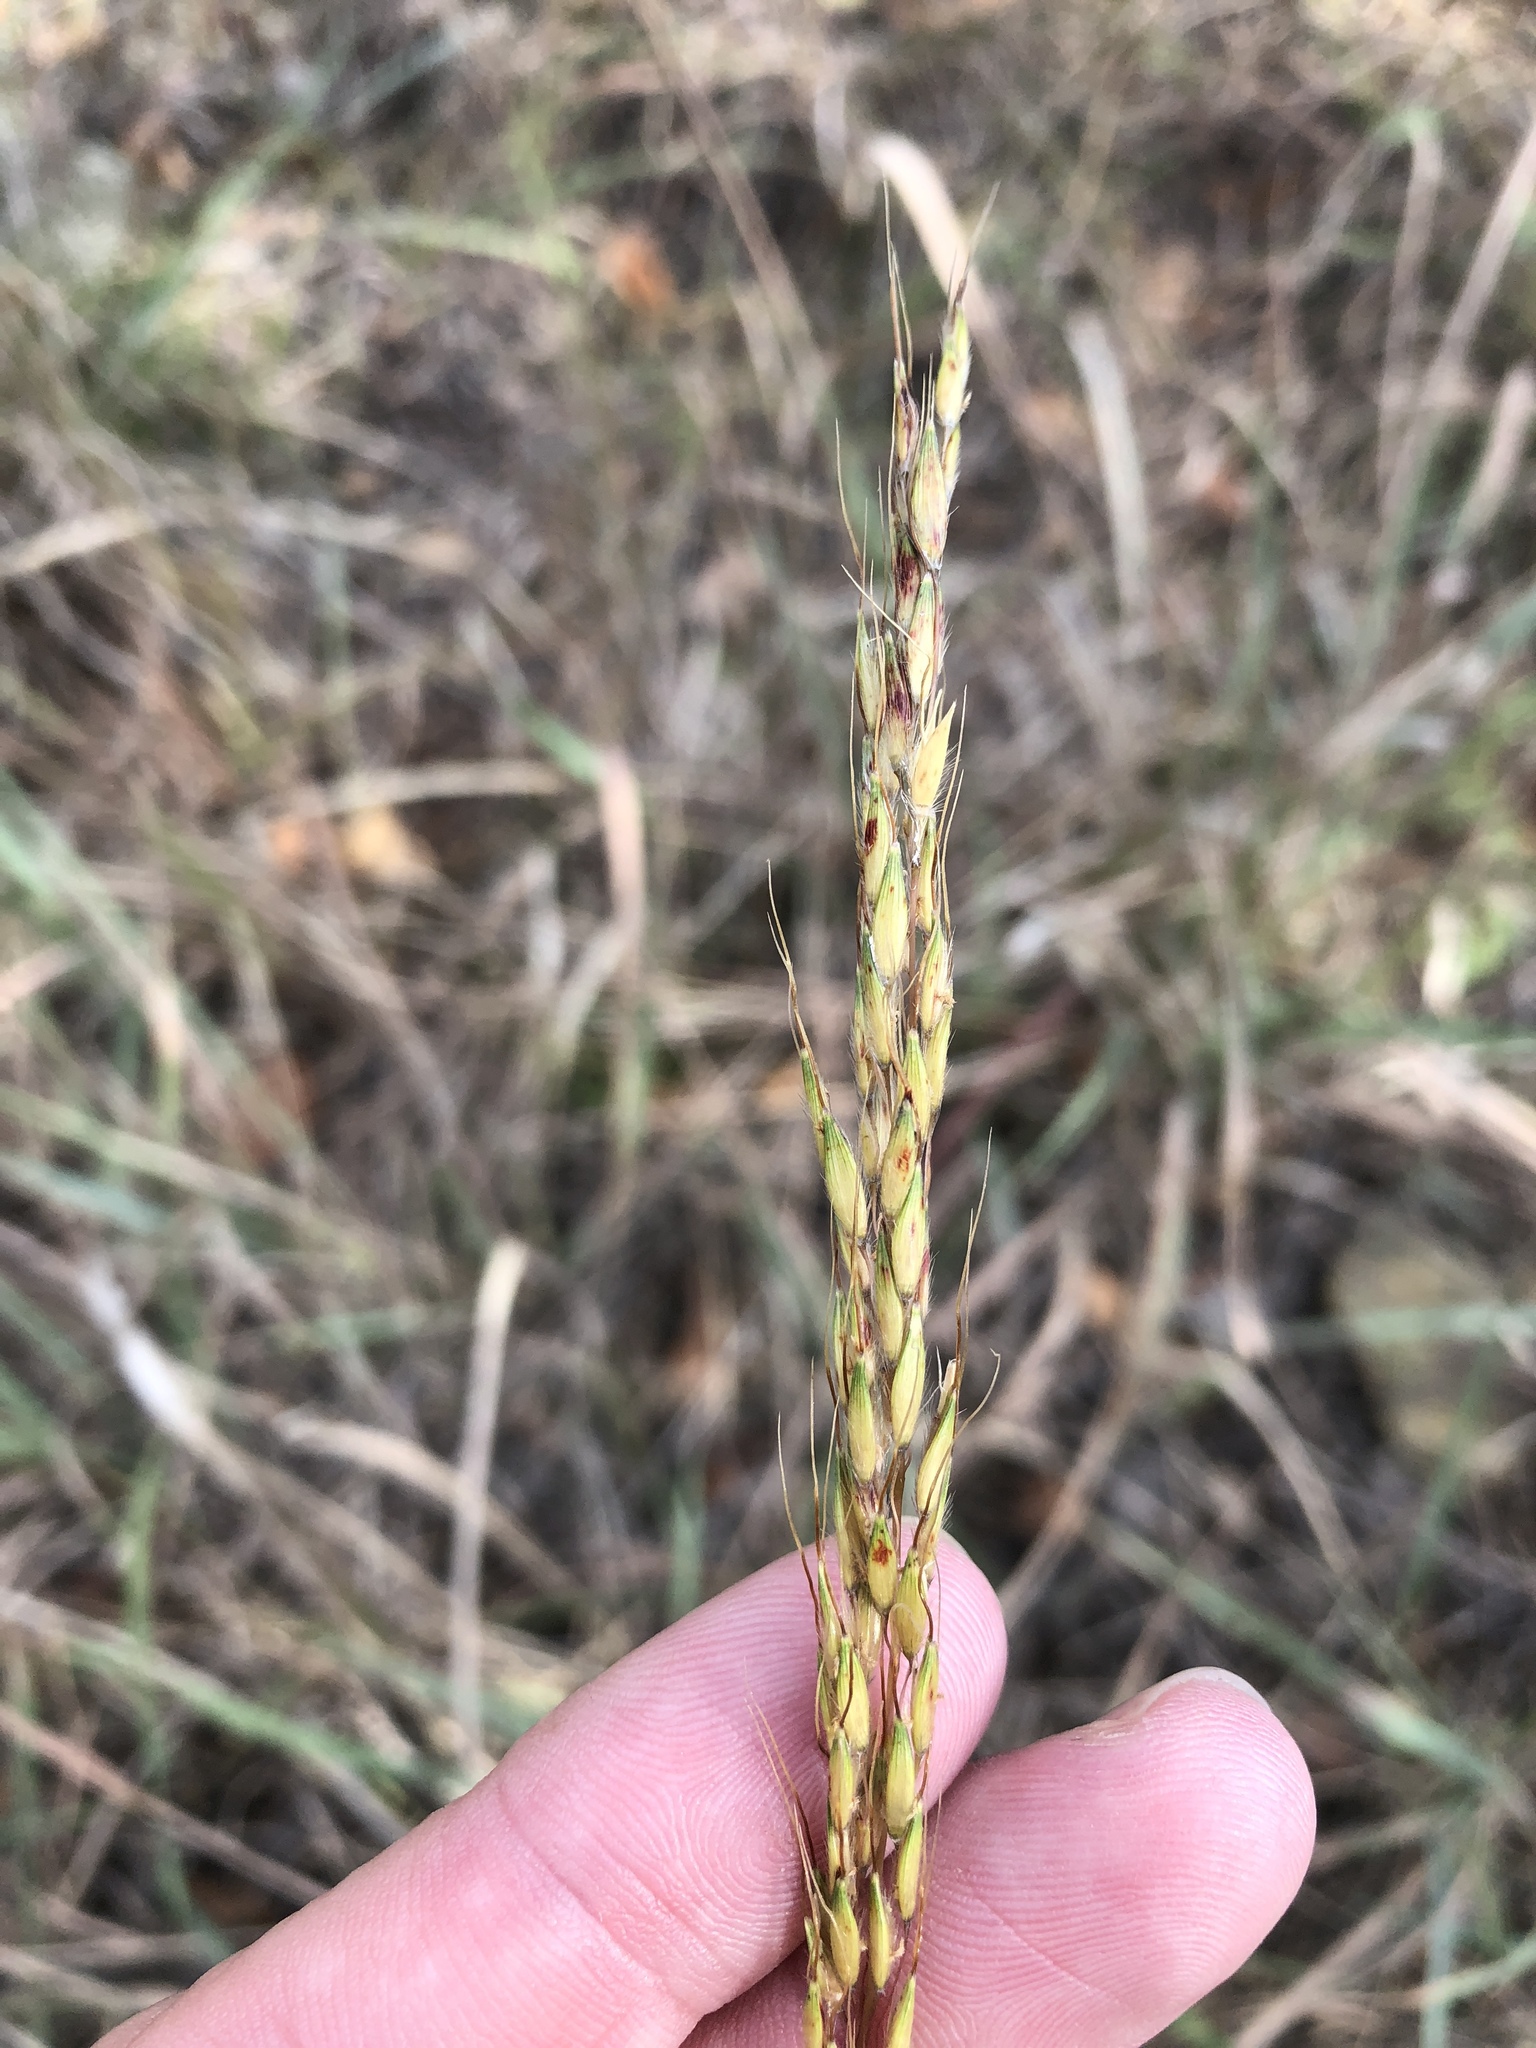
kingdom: Plantae
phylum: Tracheophyta
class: Liliopsida
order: Poales
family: Poaceae
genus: Sorghastrum
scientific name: Sorghastrum nutans
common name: Indian grass
